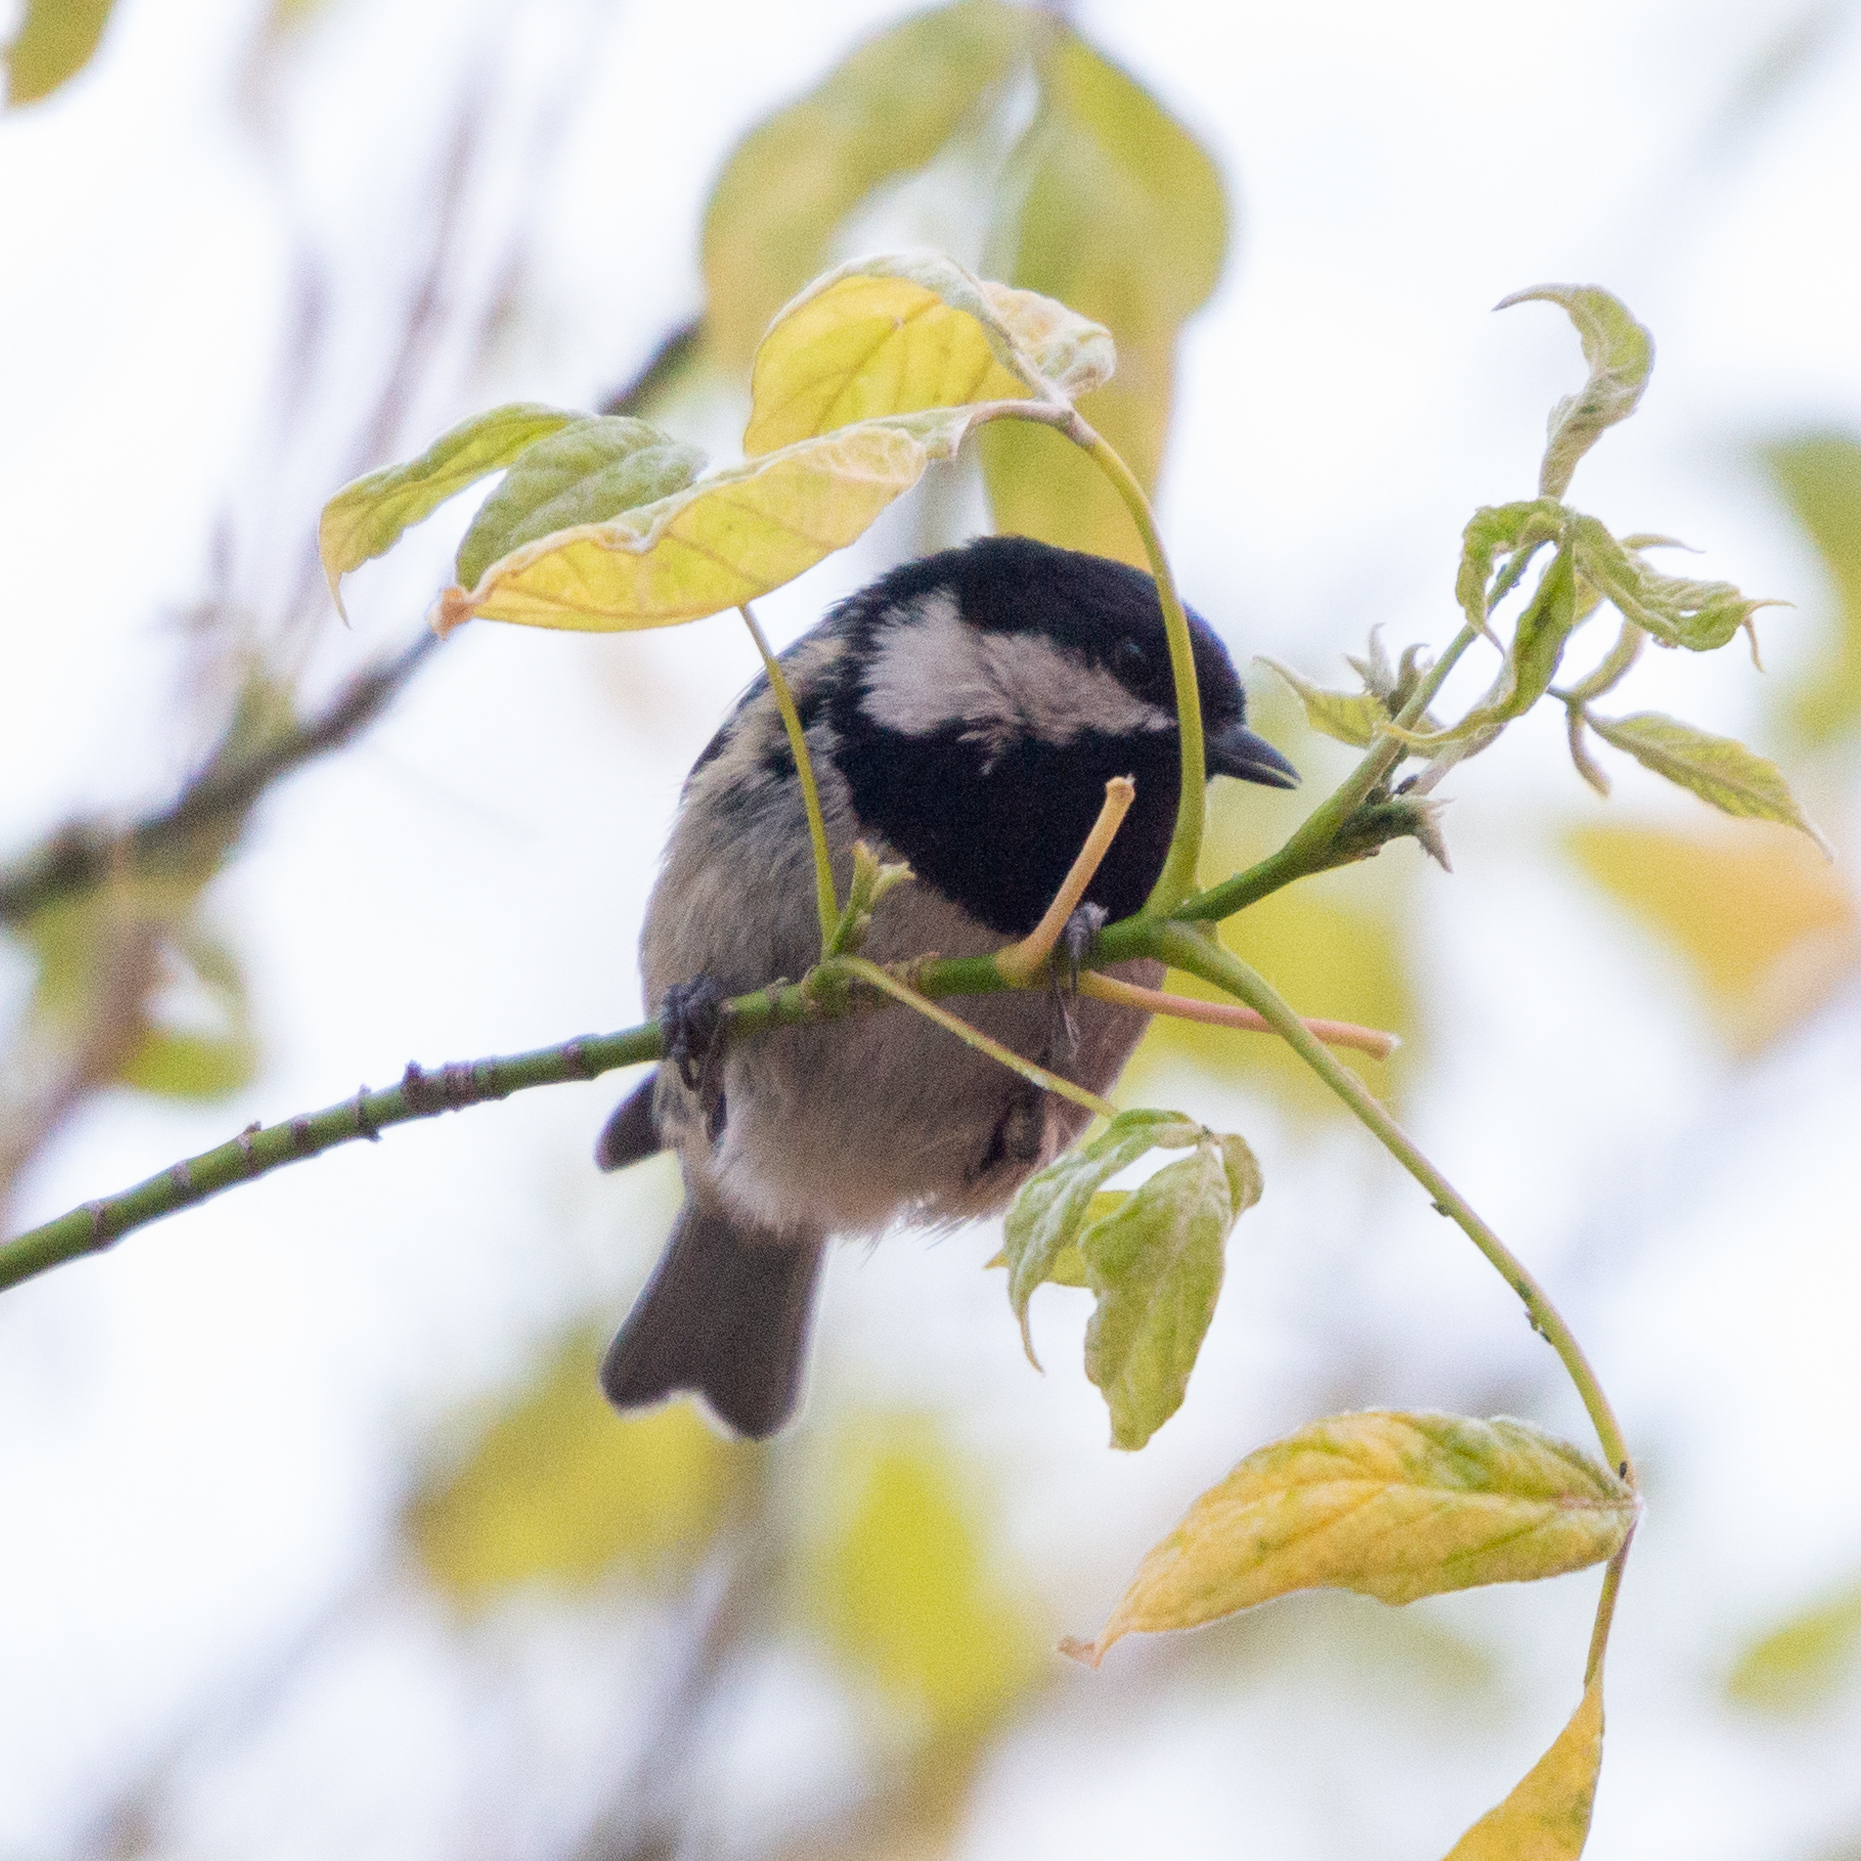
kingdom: Animalia
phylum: Chordata
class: Aves
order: Passeriformes
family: Paridae
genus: Periparus
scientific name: Periparus ater
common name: Coal tit
